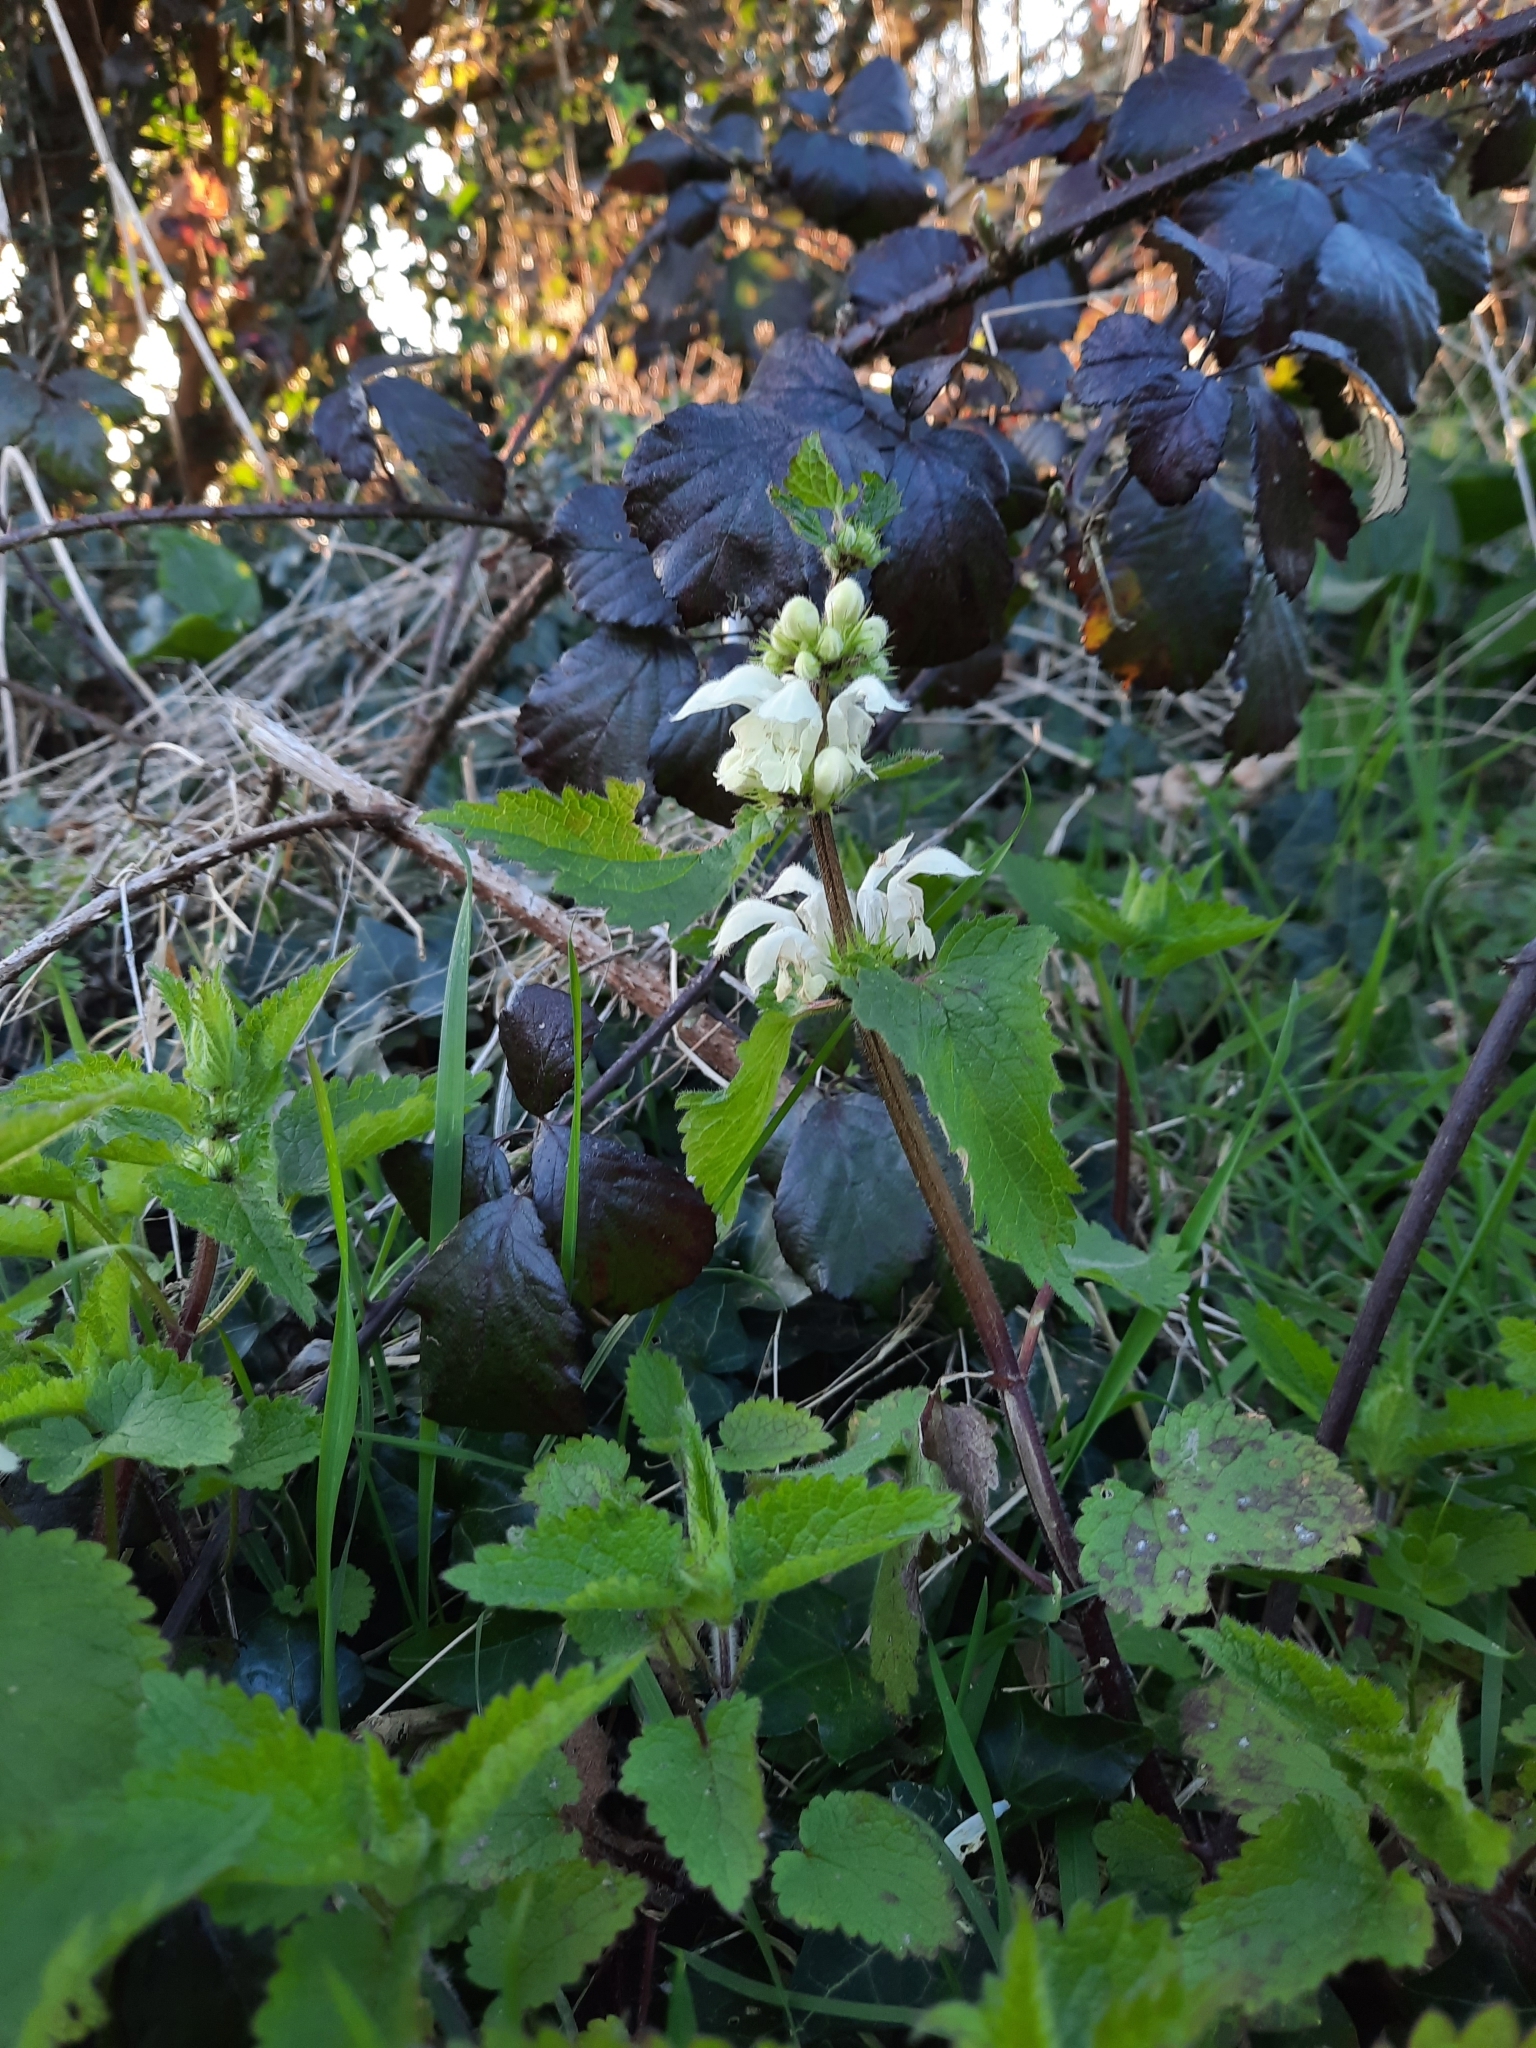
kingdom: Plantae
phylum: Tracheophyta
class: Magnoliopsida
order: Lamiales
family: Lamiaceae
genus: Lamium
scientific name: Lamium album
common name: White dead-nettle
